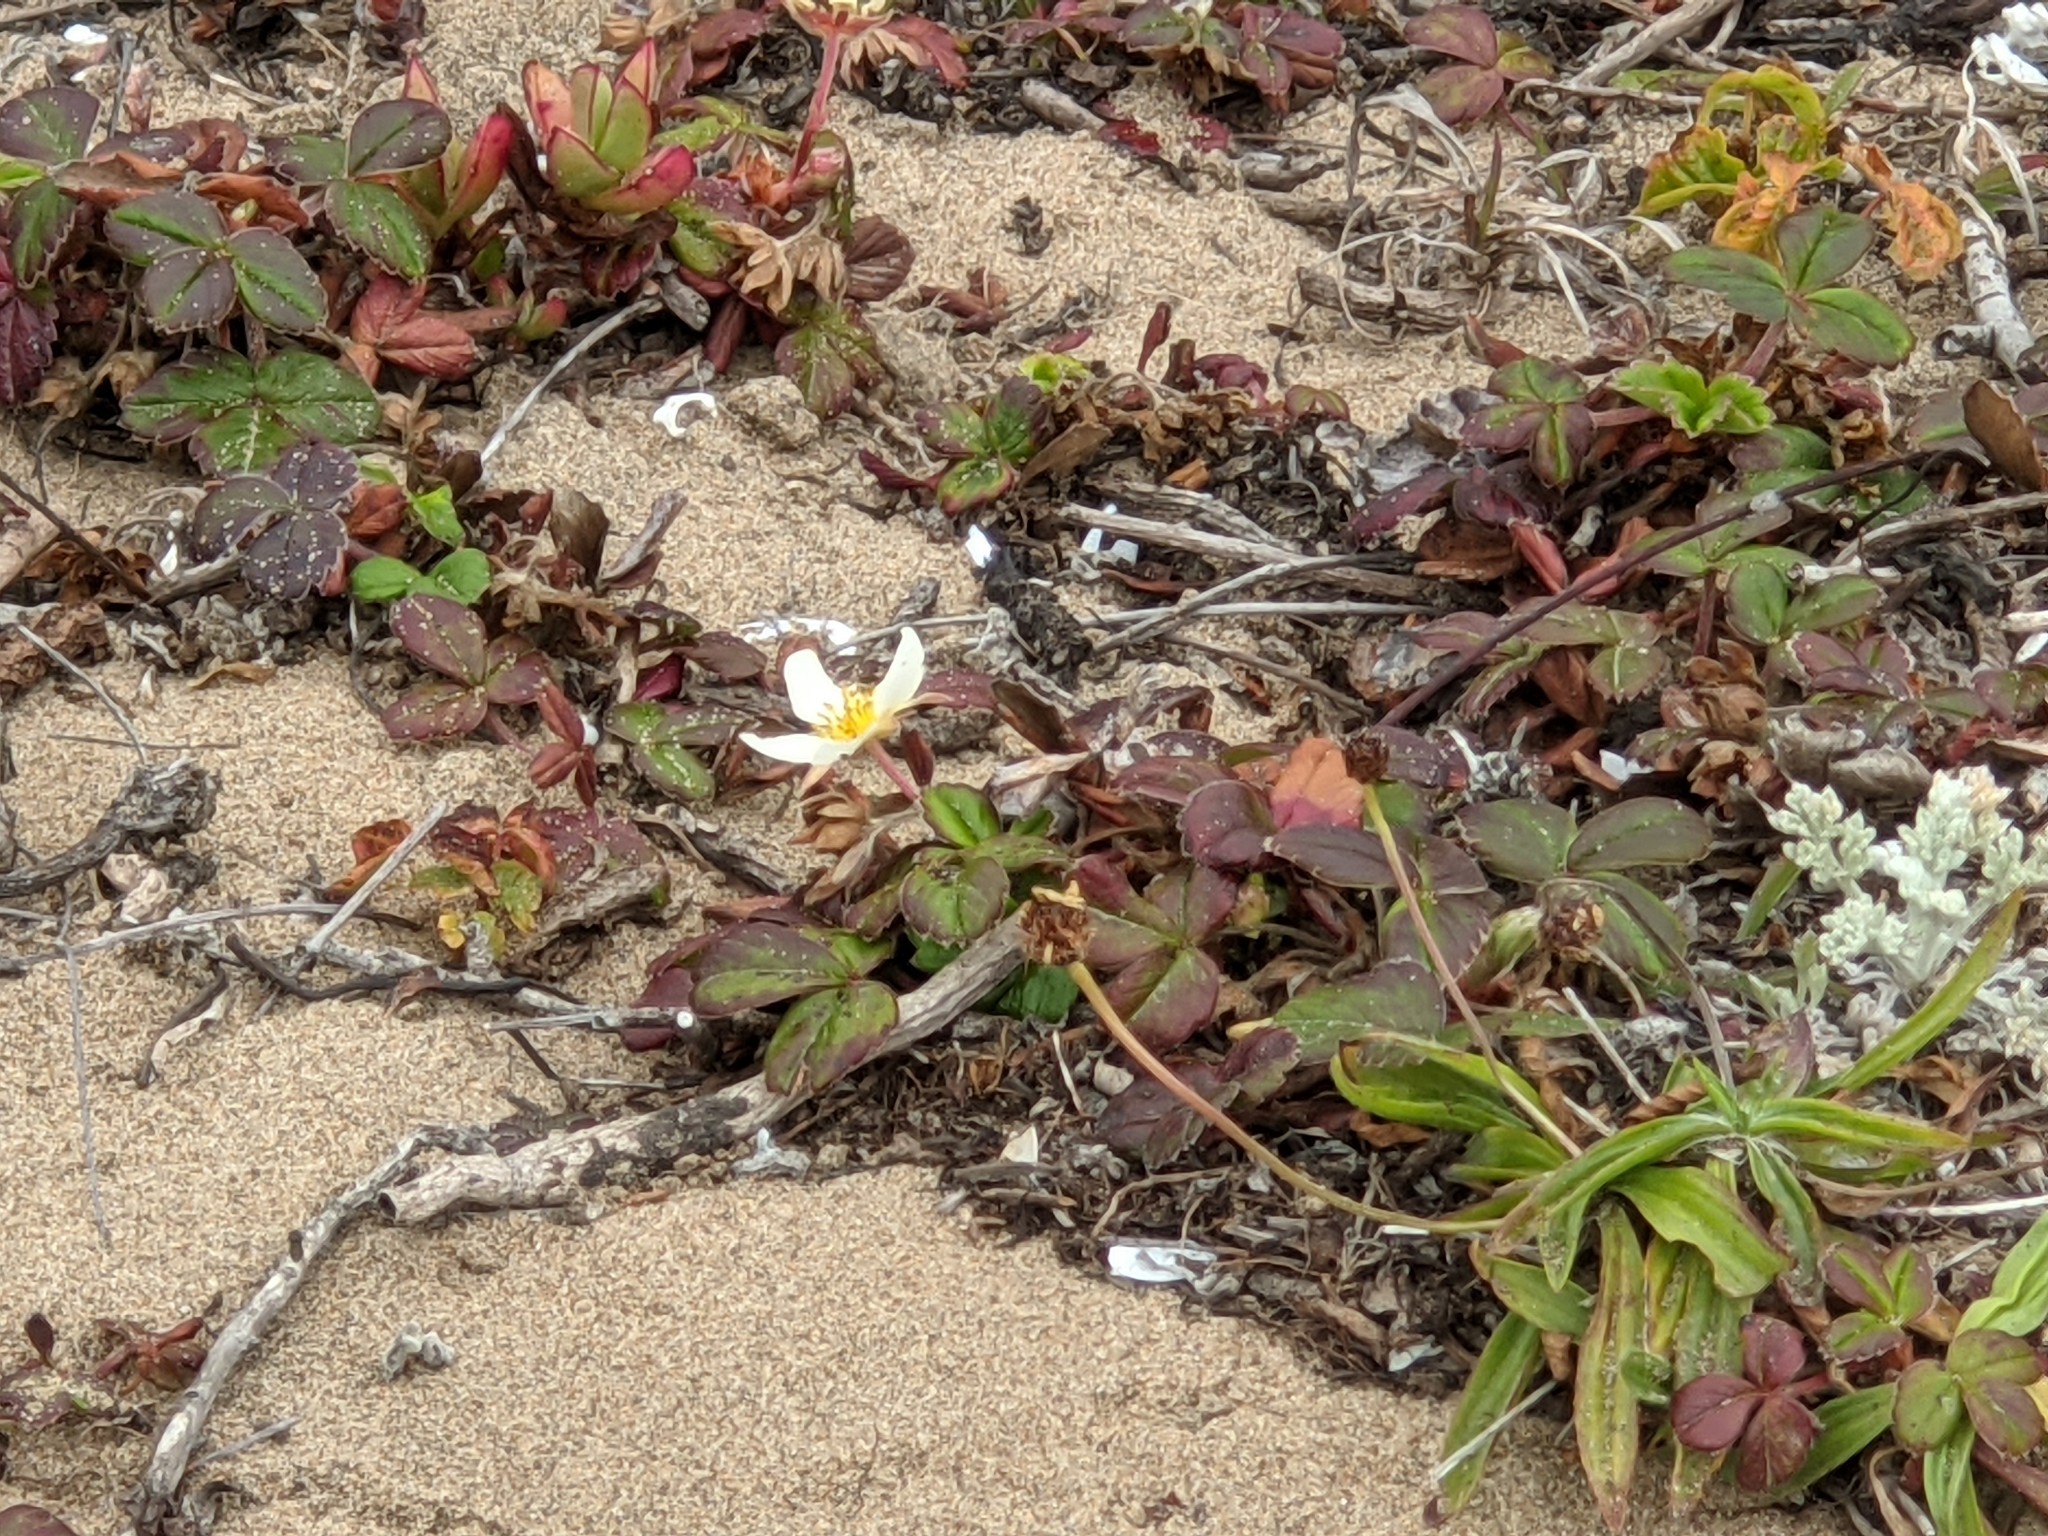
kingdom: Plantae
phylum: Tracheophyta
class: Magnoliopsida
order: Rosales
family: Rosaceae
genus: Fragaria
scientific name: Fragaria chiloensis
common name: Beach strawberry
